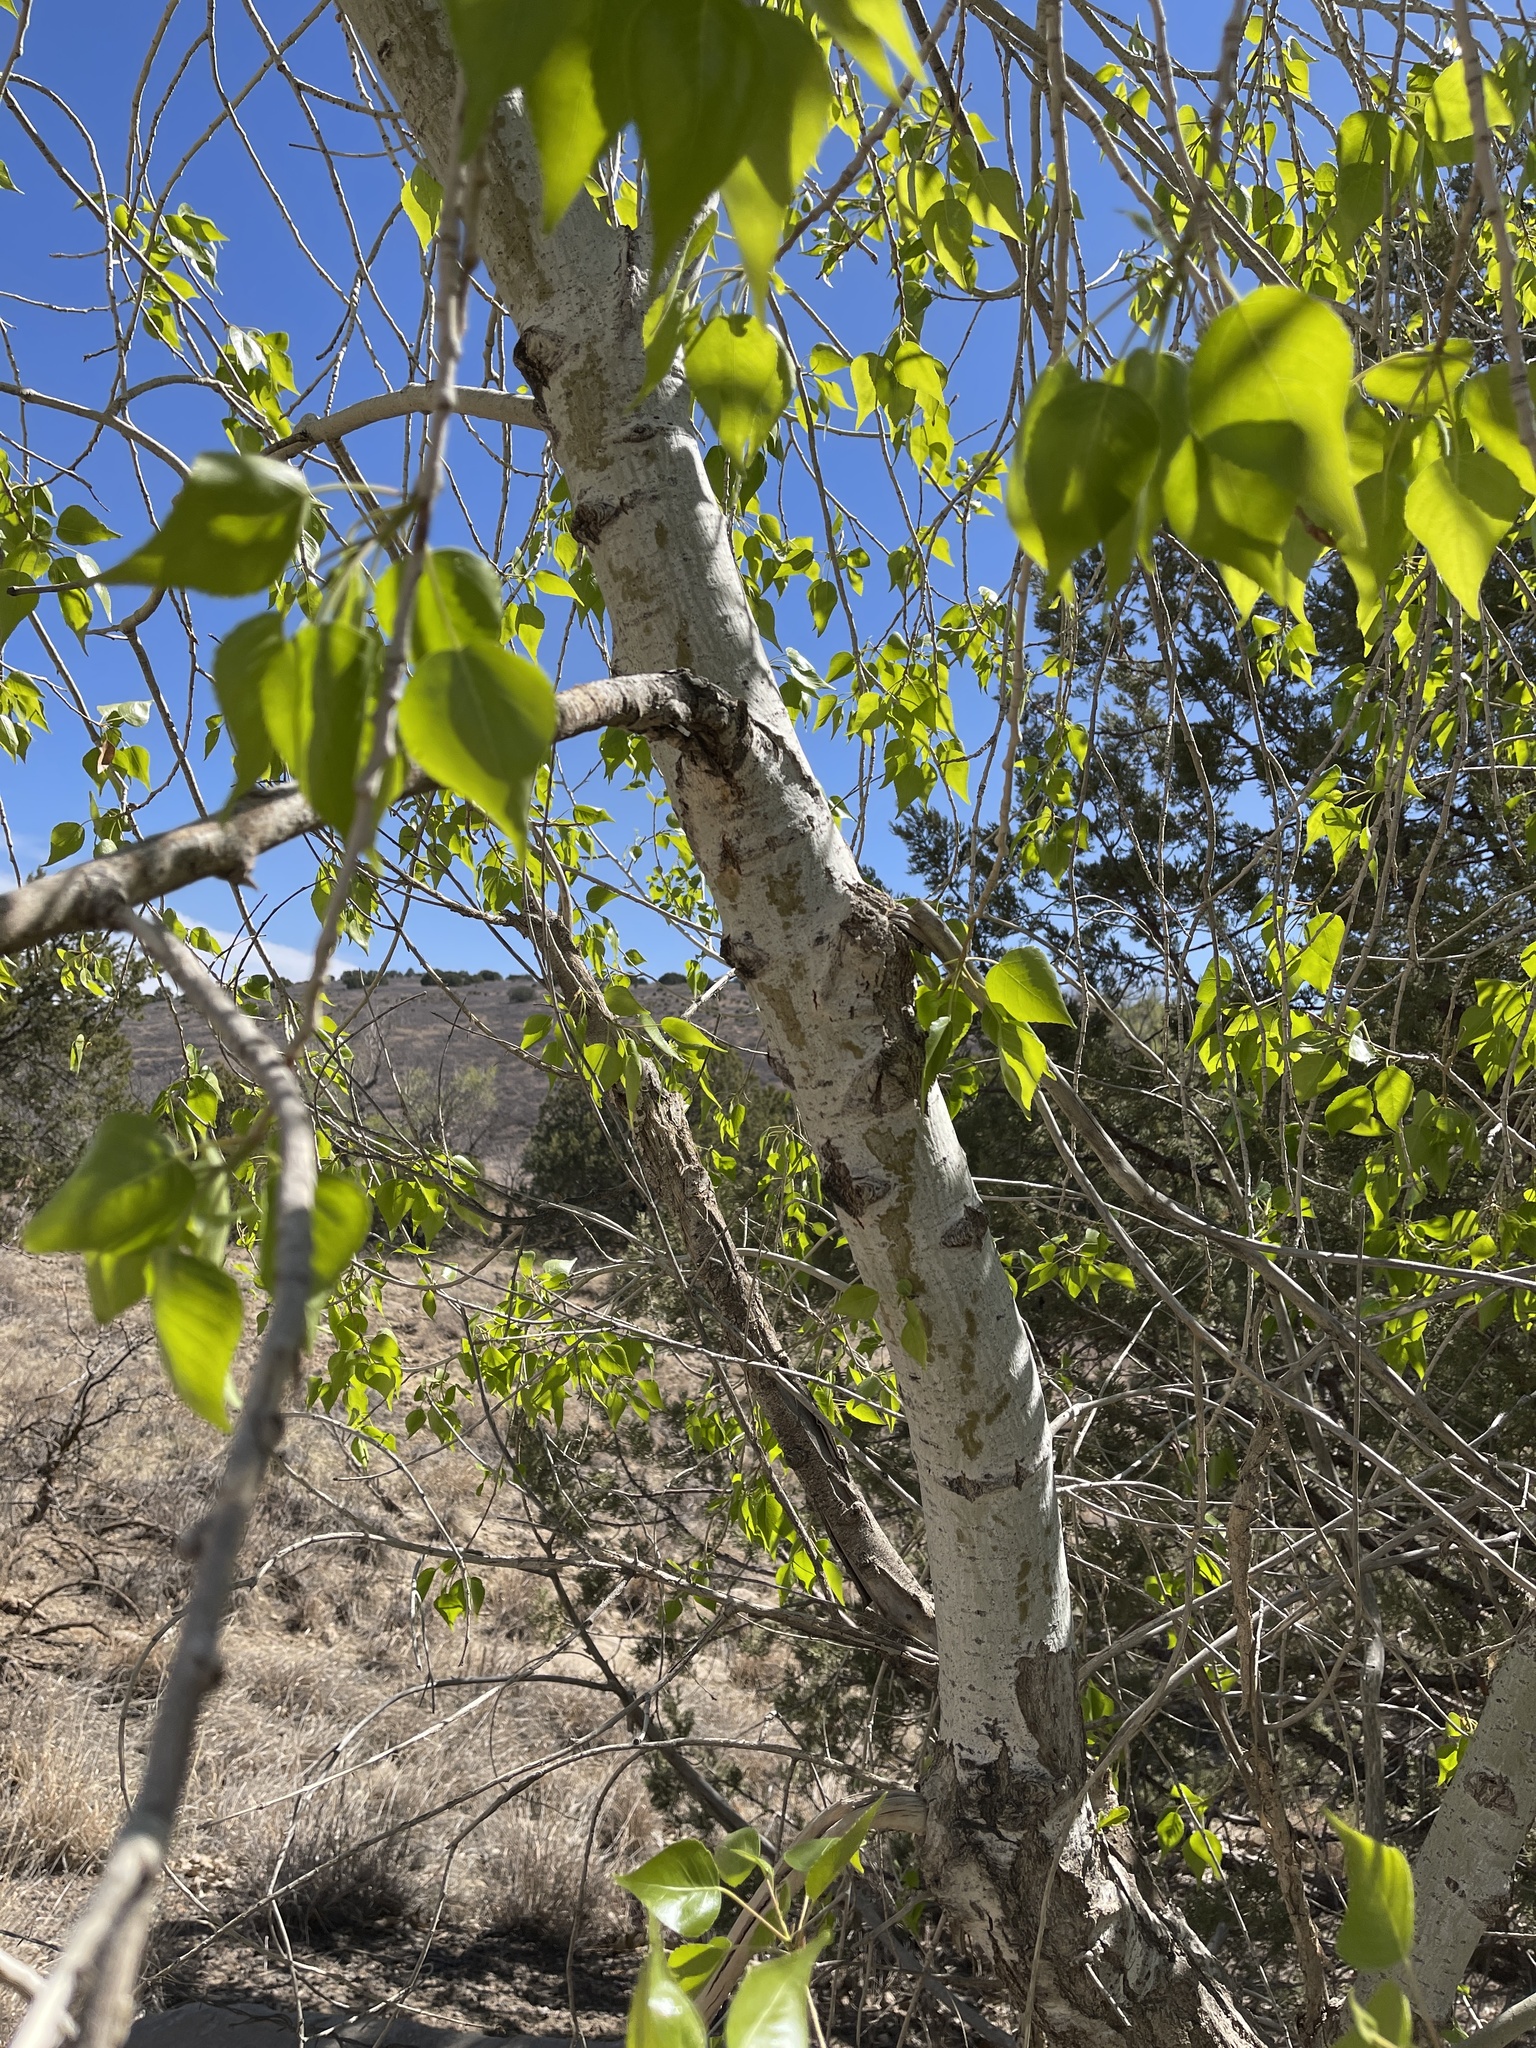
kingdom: Plantae
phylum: Tracheophyta
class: Magnoliopsida
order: Malpighiales
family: Salicaceae
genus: Populus
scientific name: Populus acuminata
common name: Lance-leaved cottonwood
